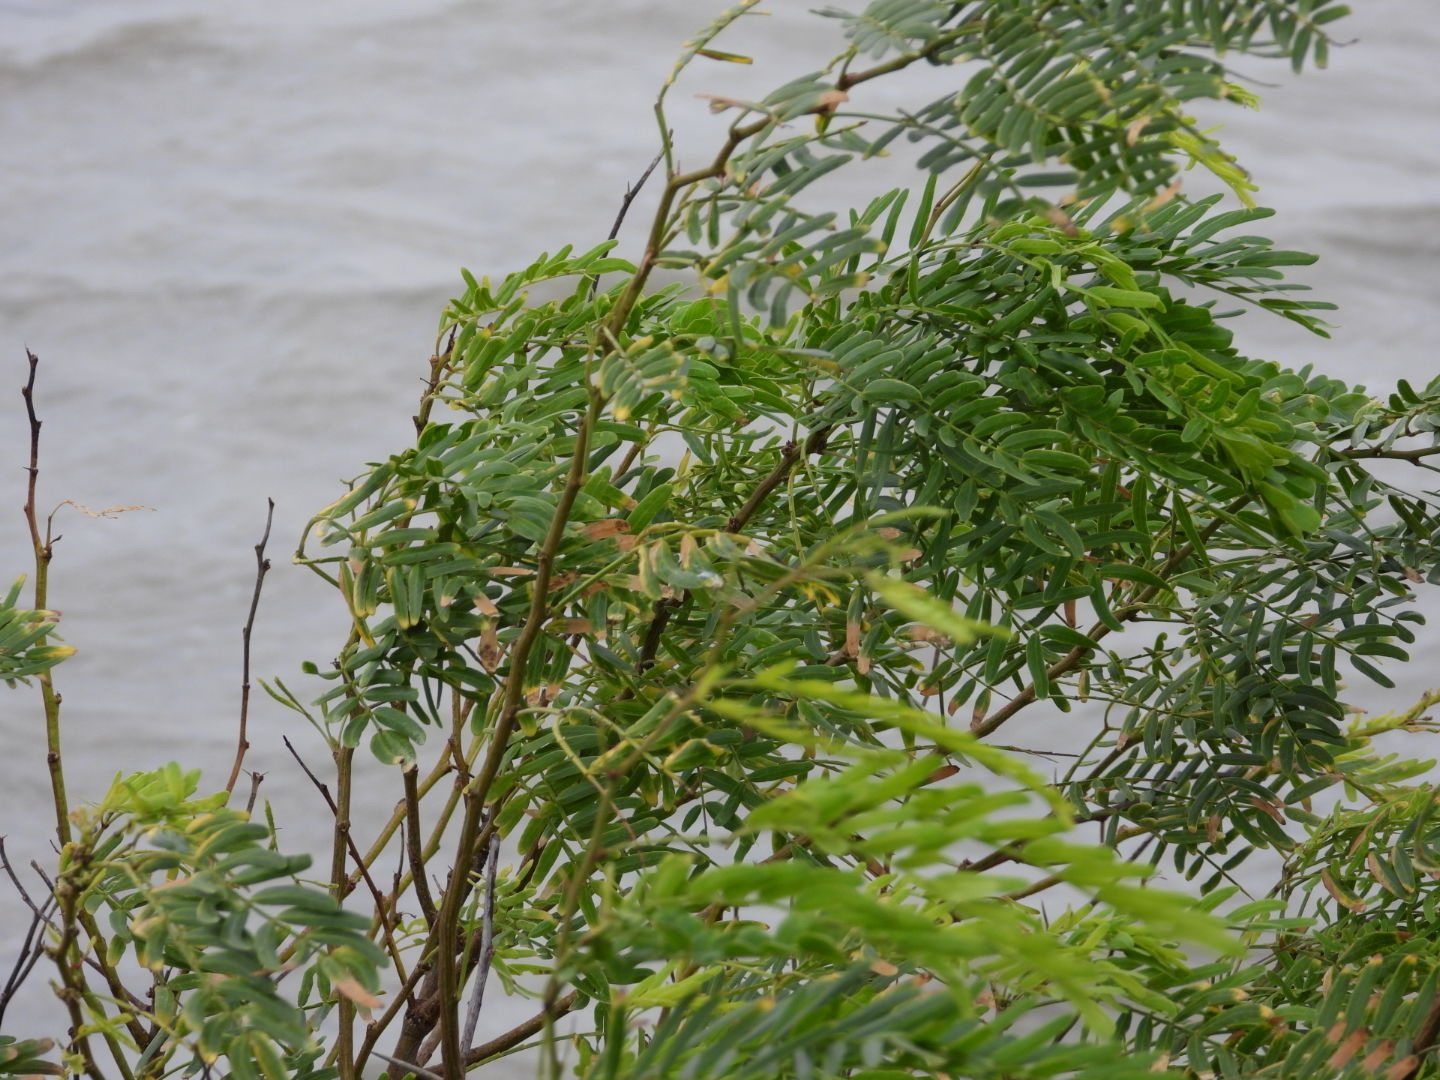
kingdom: Plantae
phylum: Tracheophyta
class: Magnoliopsida
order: Fabales
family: Fabaceae
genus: Prosopis
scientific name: Prosopis glandulosa
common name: Honey mesquite
